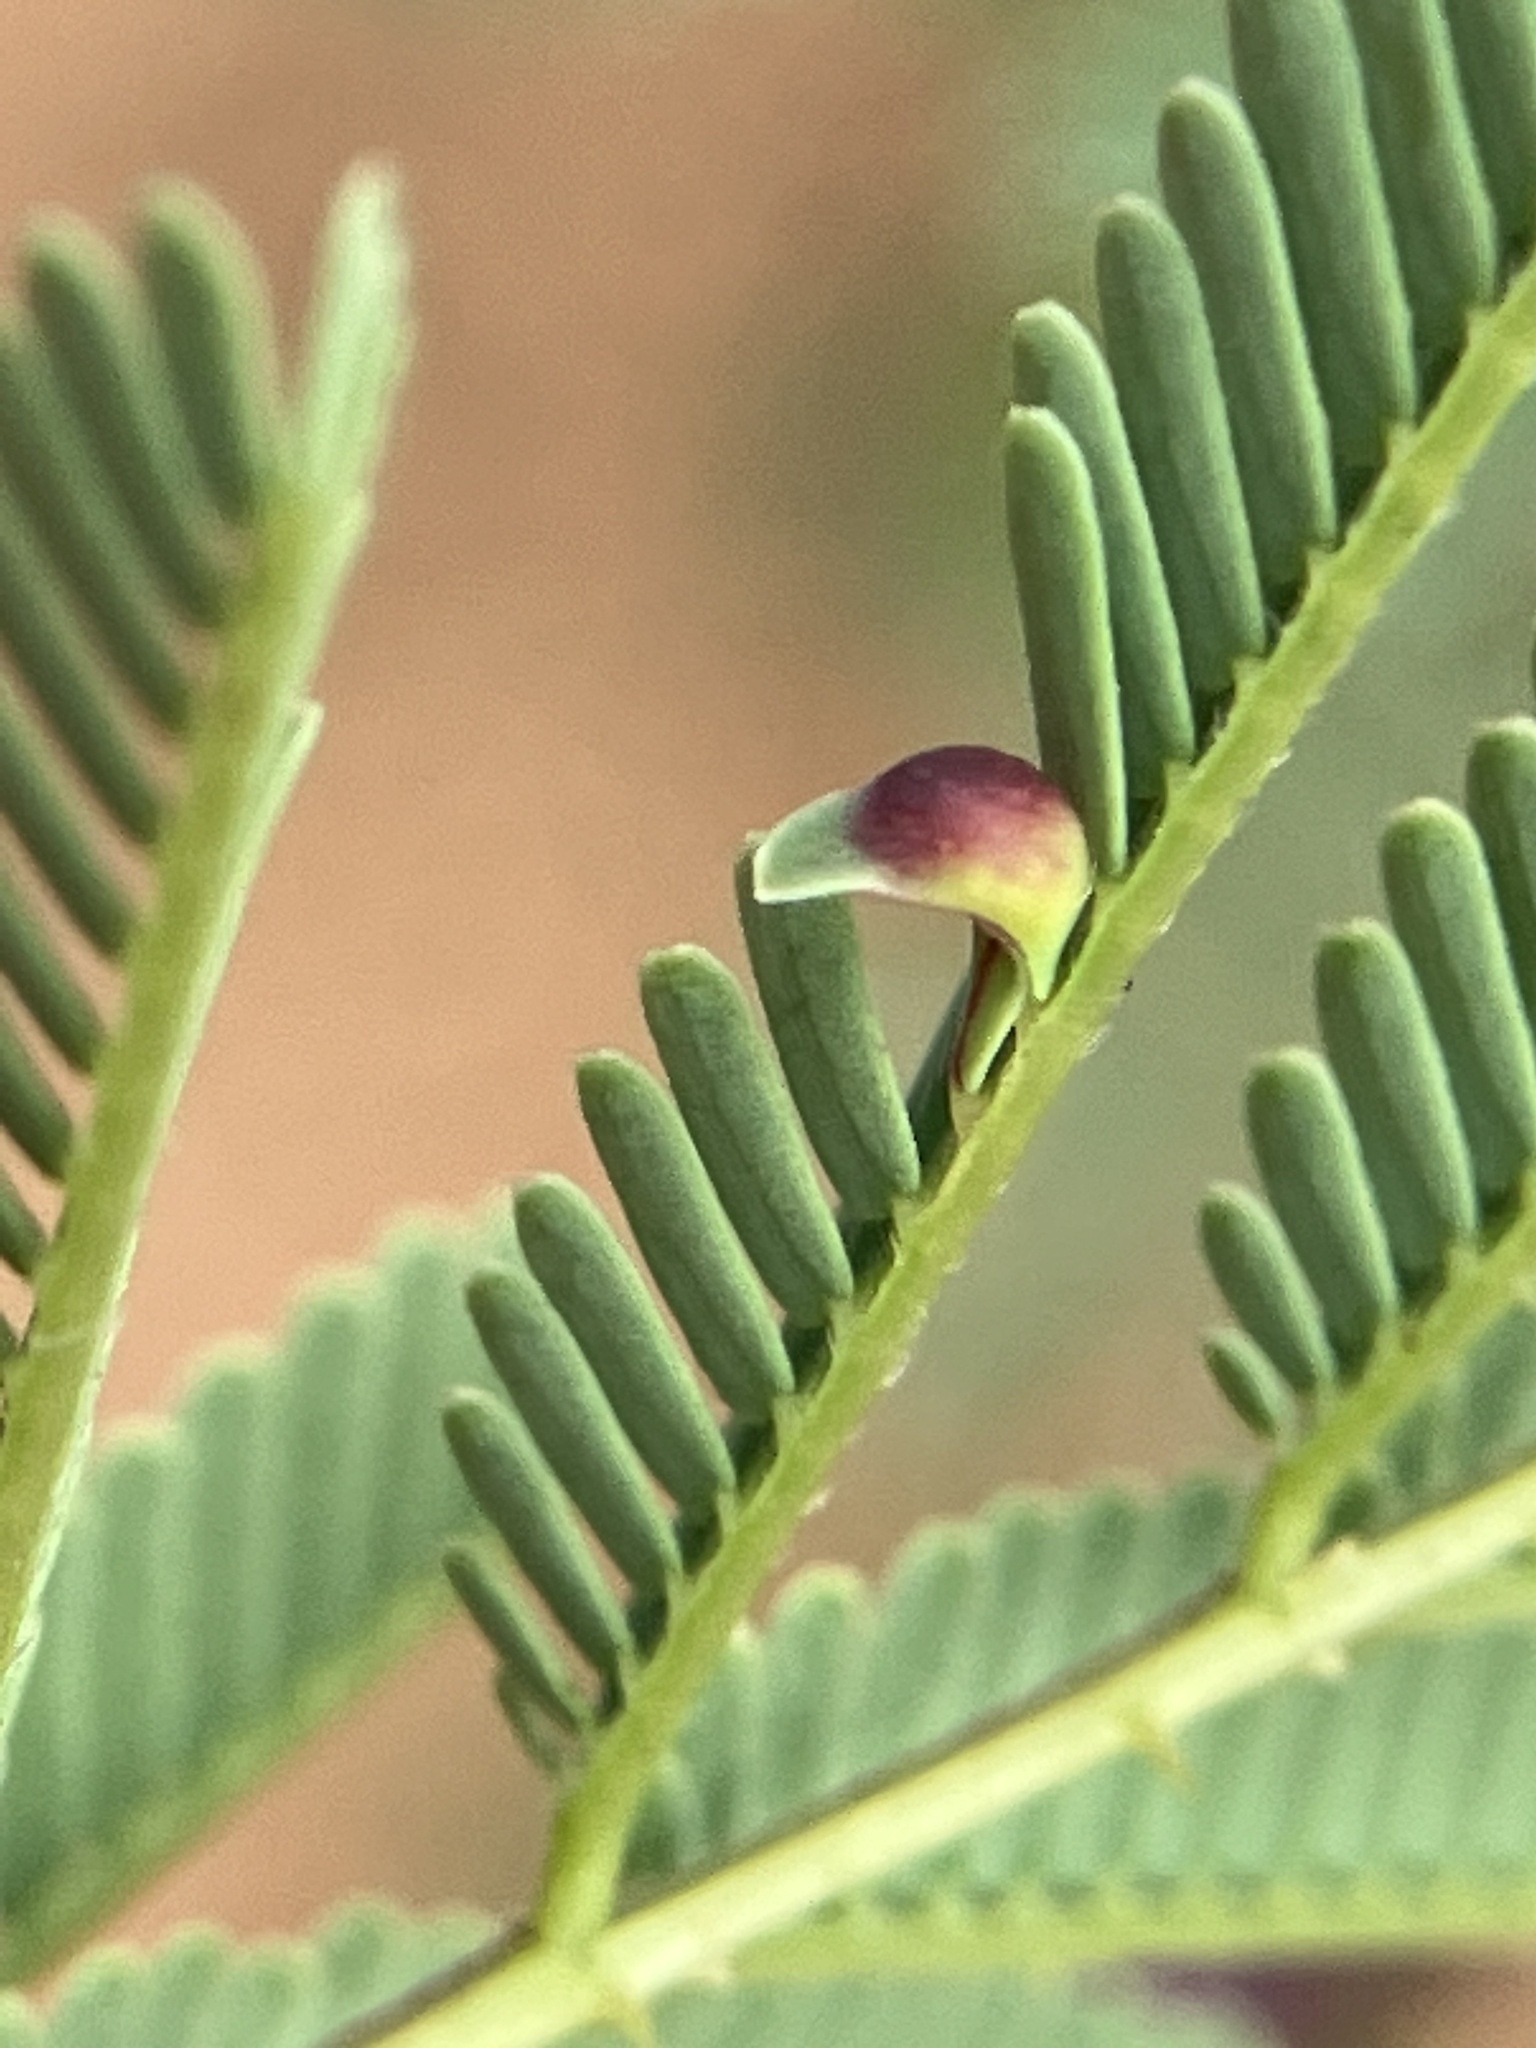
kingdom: Animalia
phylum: Arthropoda
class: Insecta
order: Diptera
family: Cecidomyiidae
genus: Lobopteromyia
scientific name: Lobopteromyia
